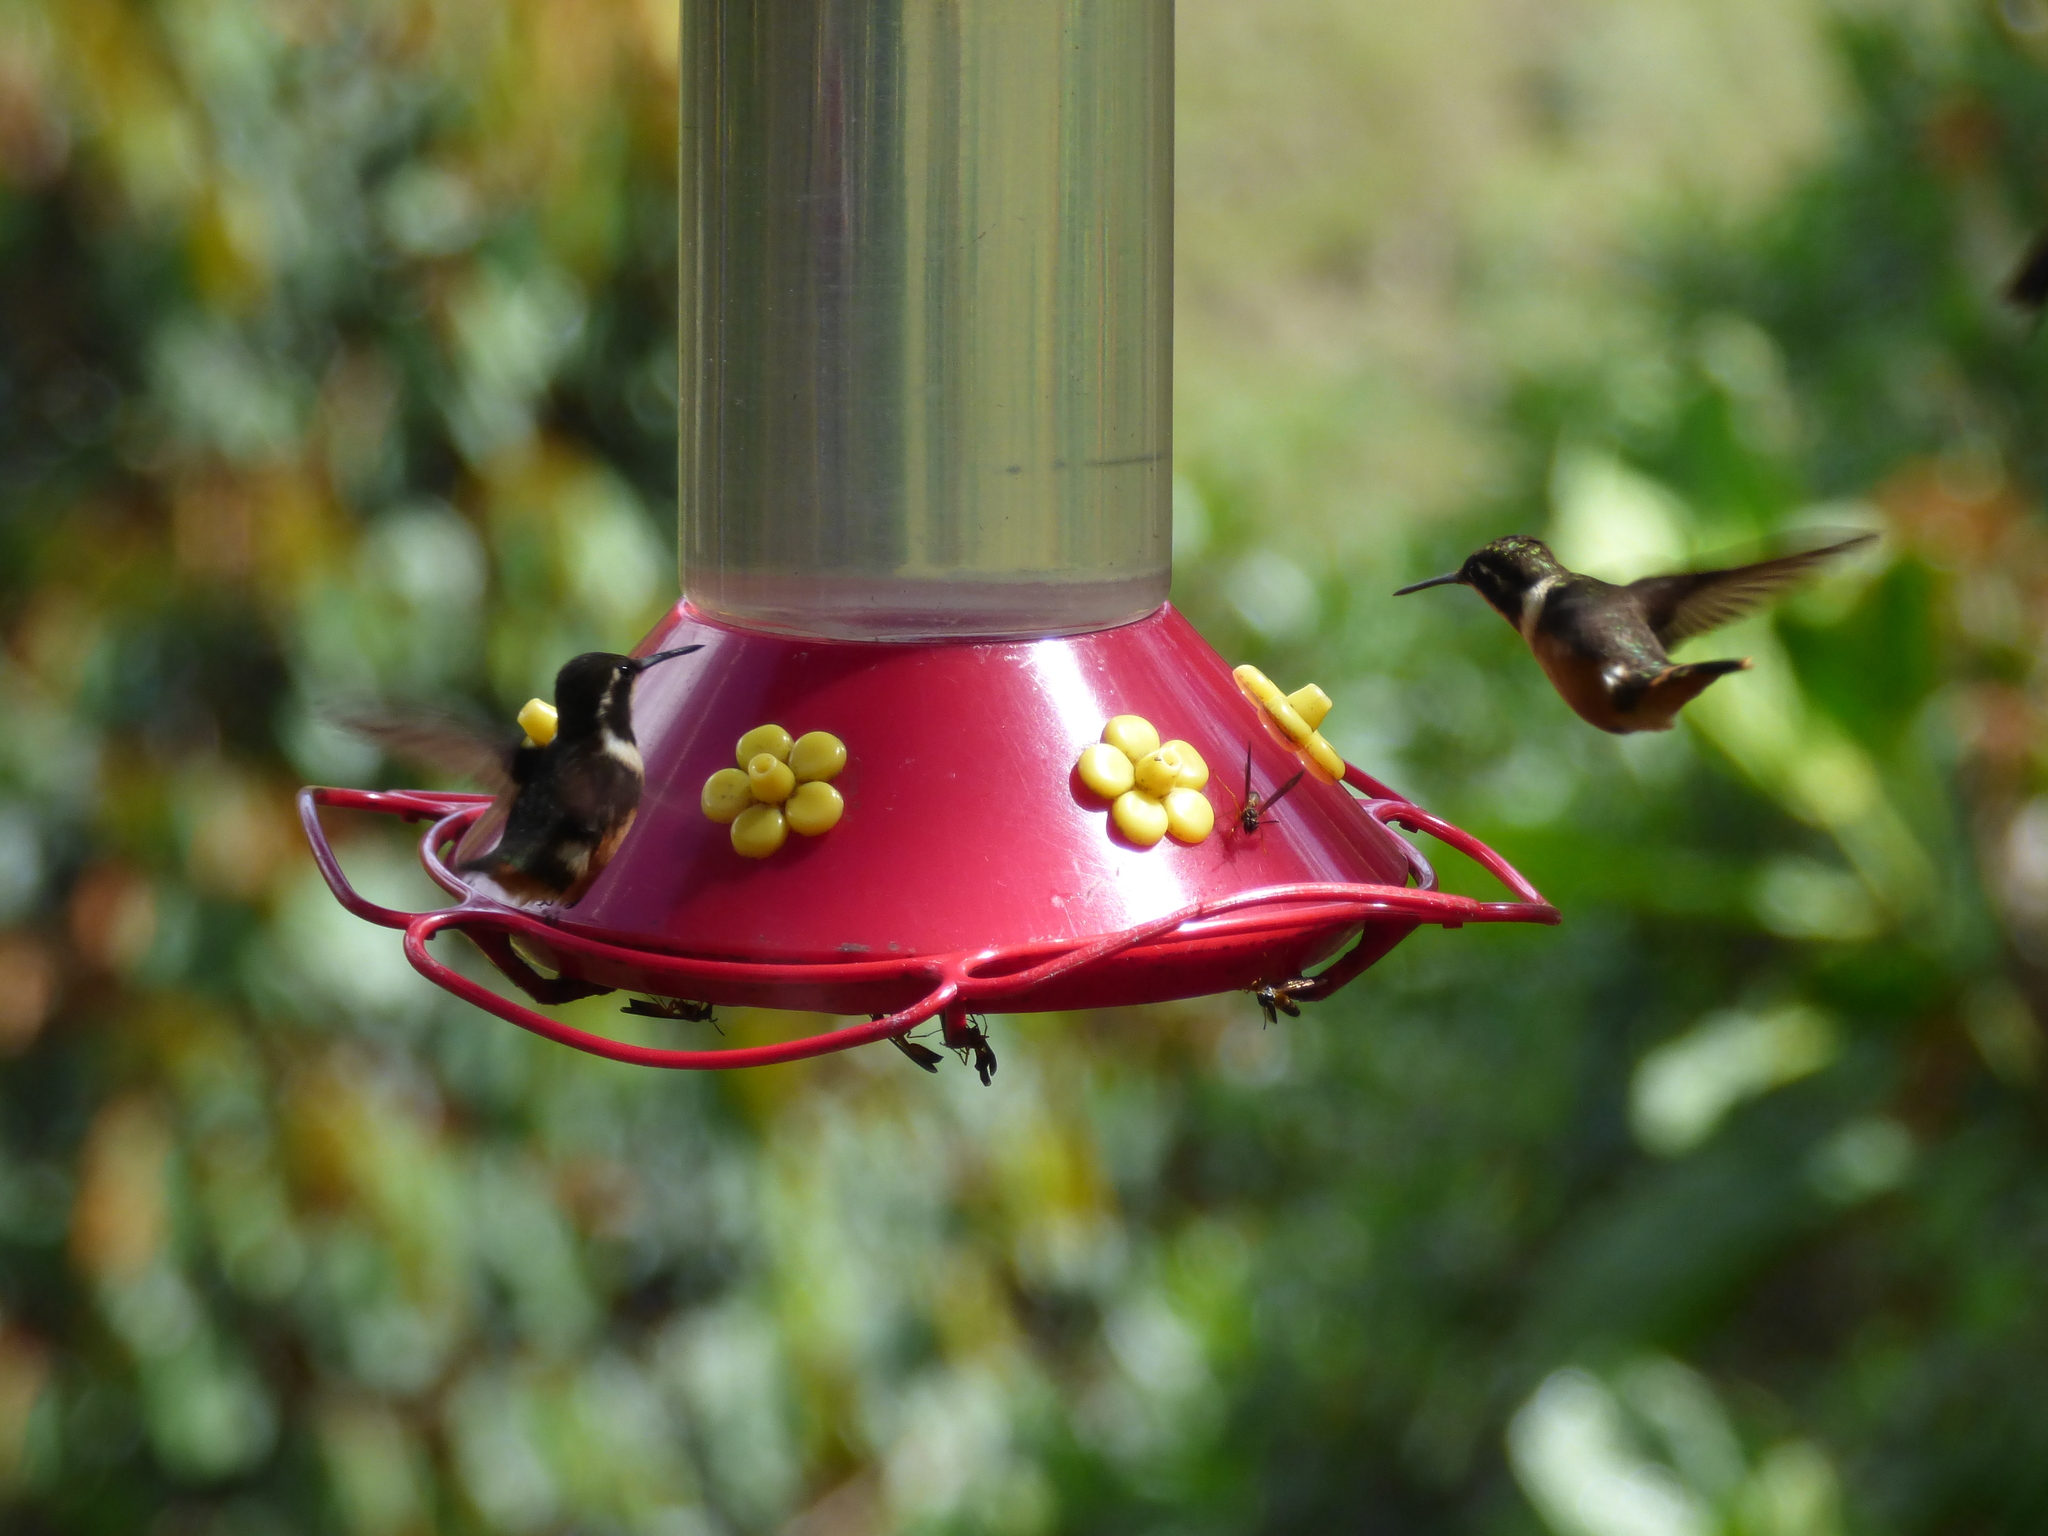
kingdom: Animalia
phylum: Chordata
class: Aves
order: Apodiformes
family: Trochilidae
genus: Chaetocercus
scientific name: Chaetocercus mulsant
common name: White-bellied woodstar
